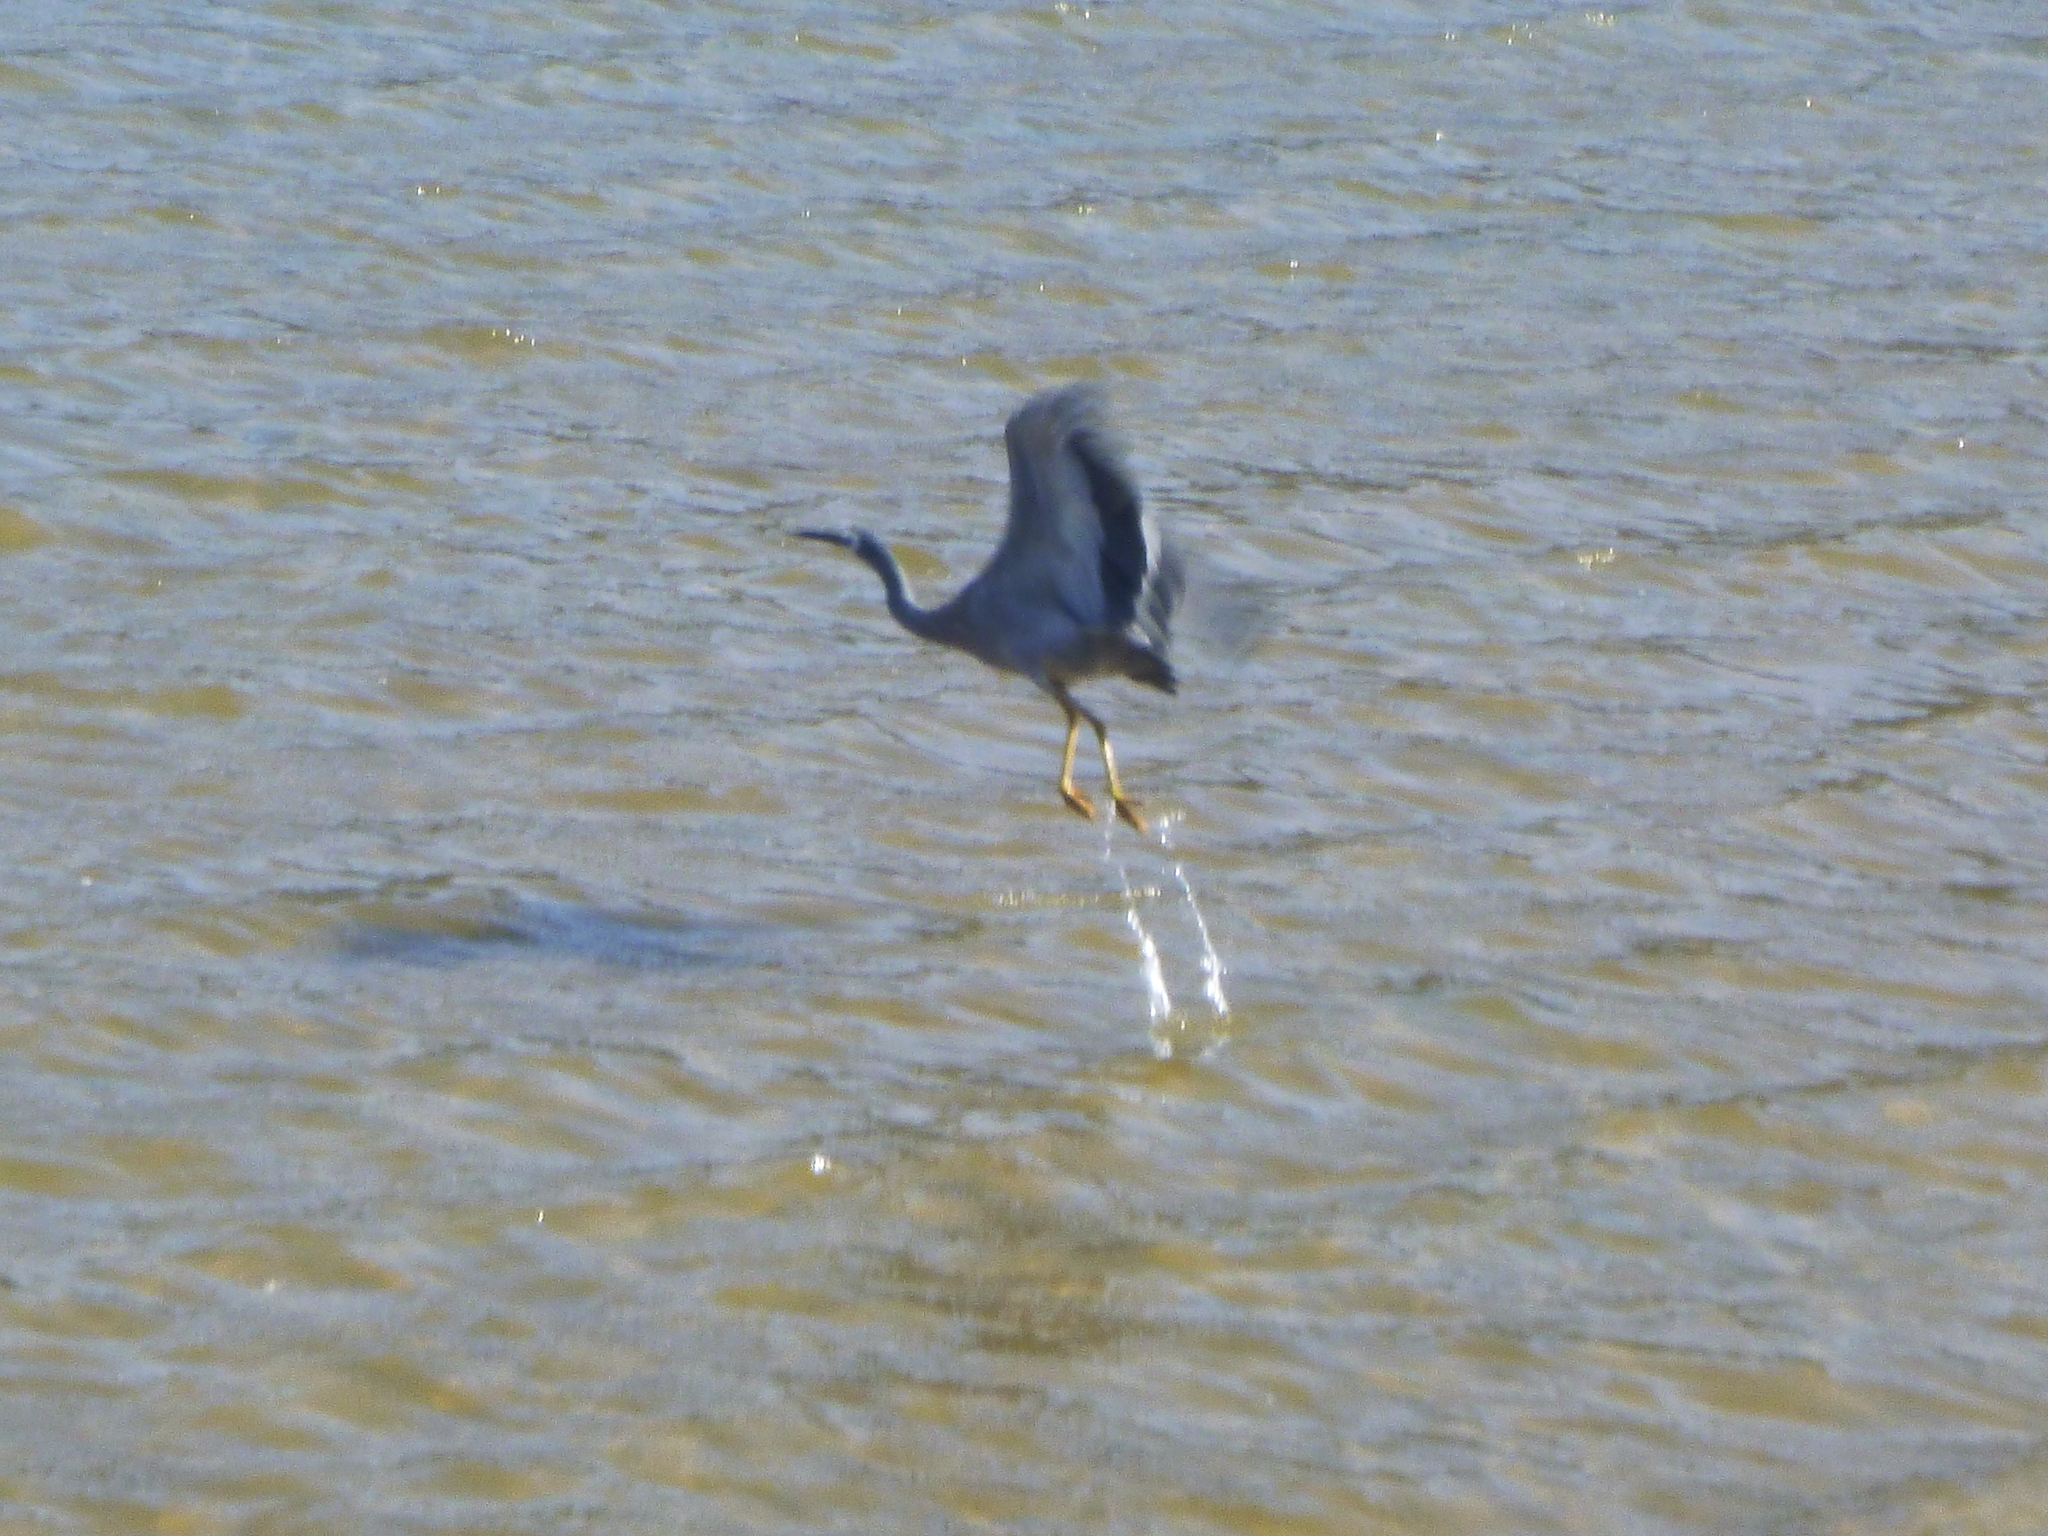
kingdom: Animalia
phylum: Chordata
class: Aves
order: Pelecaniformes
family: Ardeidae
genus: Egretta
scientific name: Egretta novaehollandiae
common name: White-faced heron
